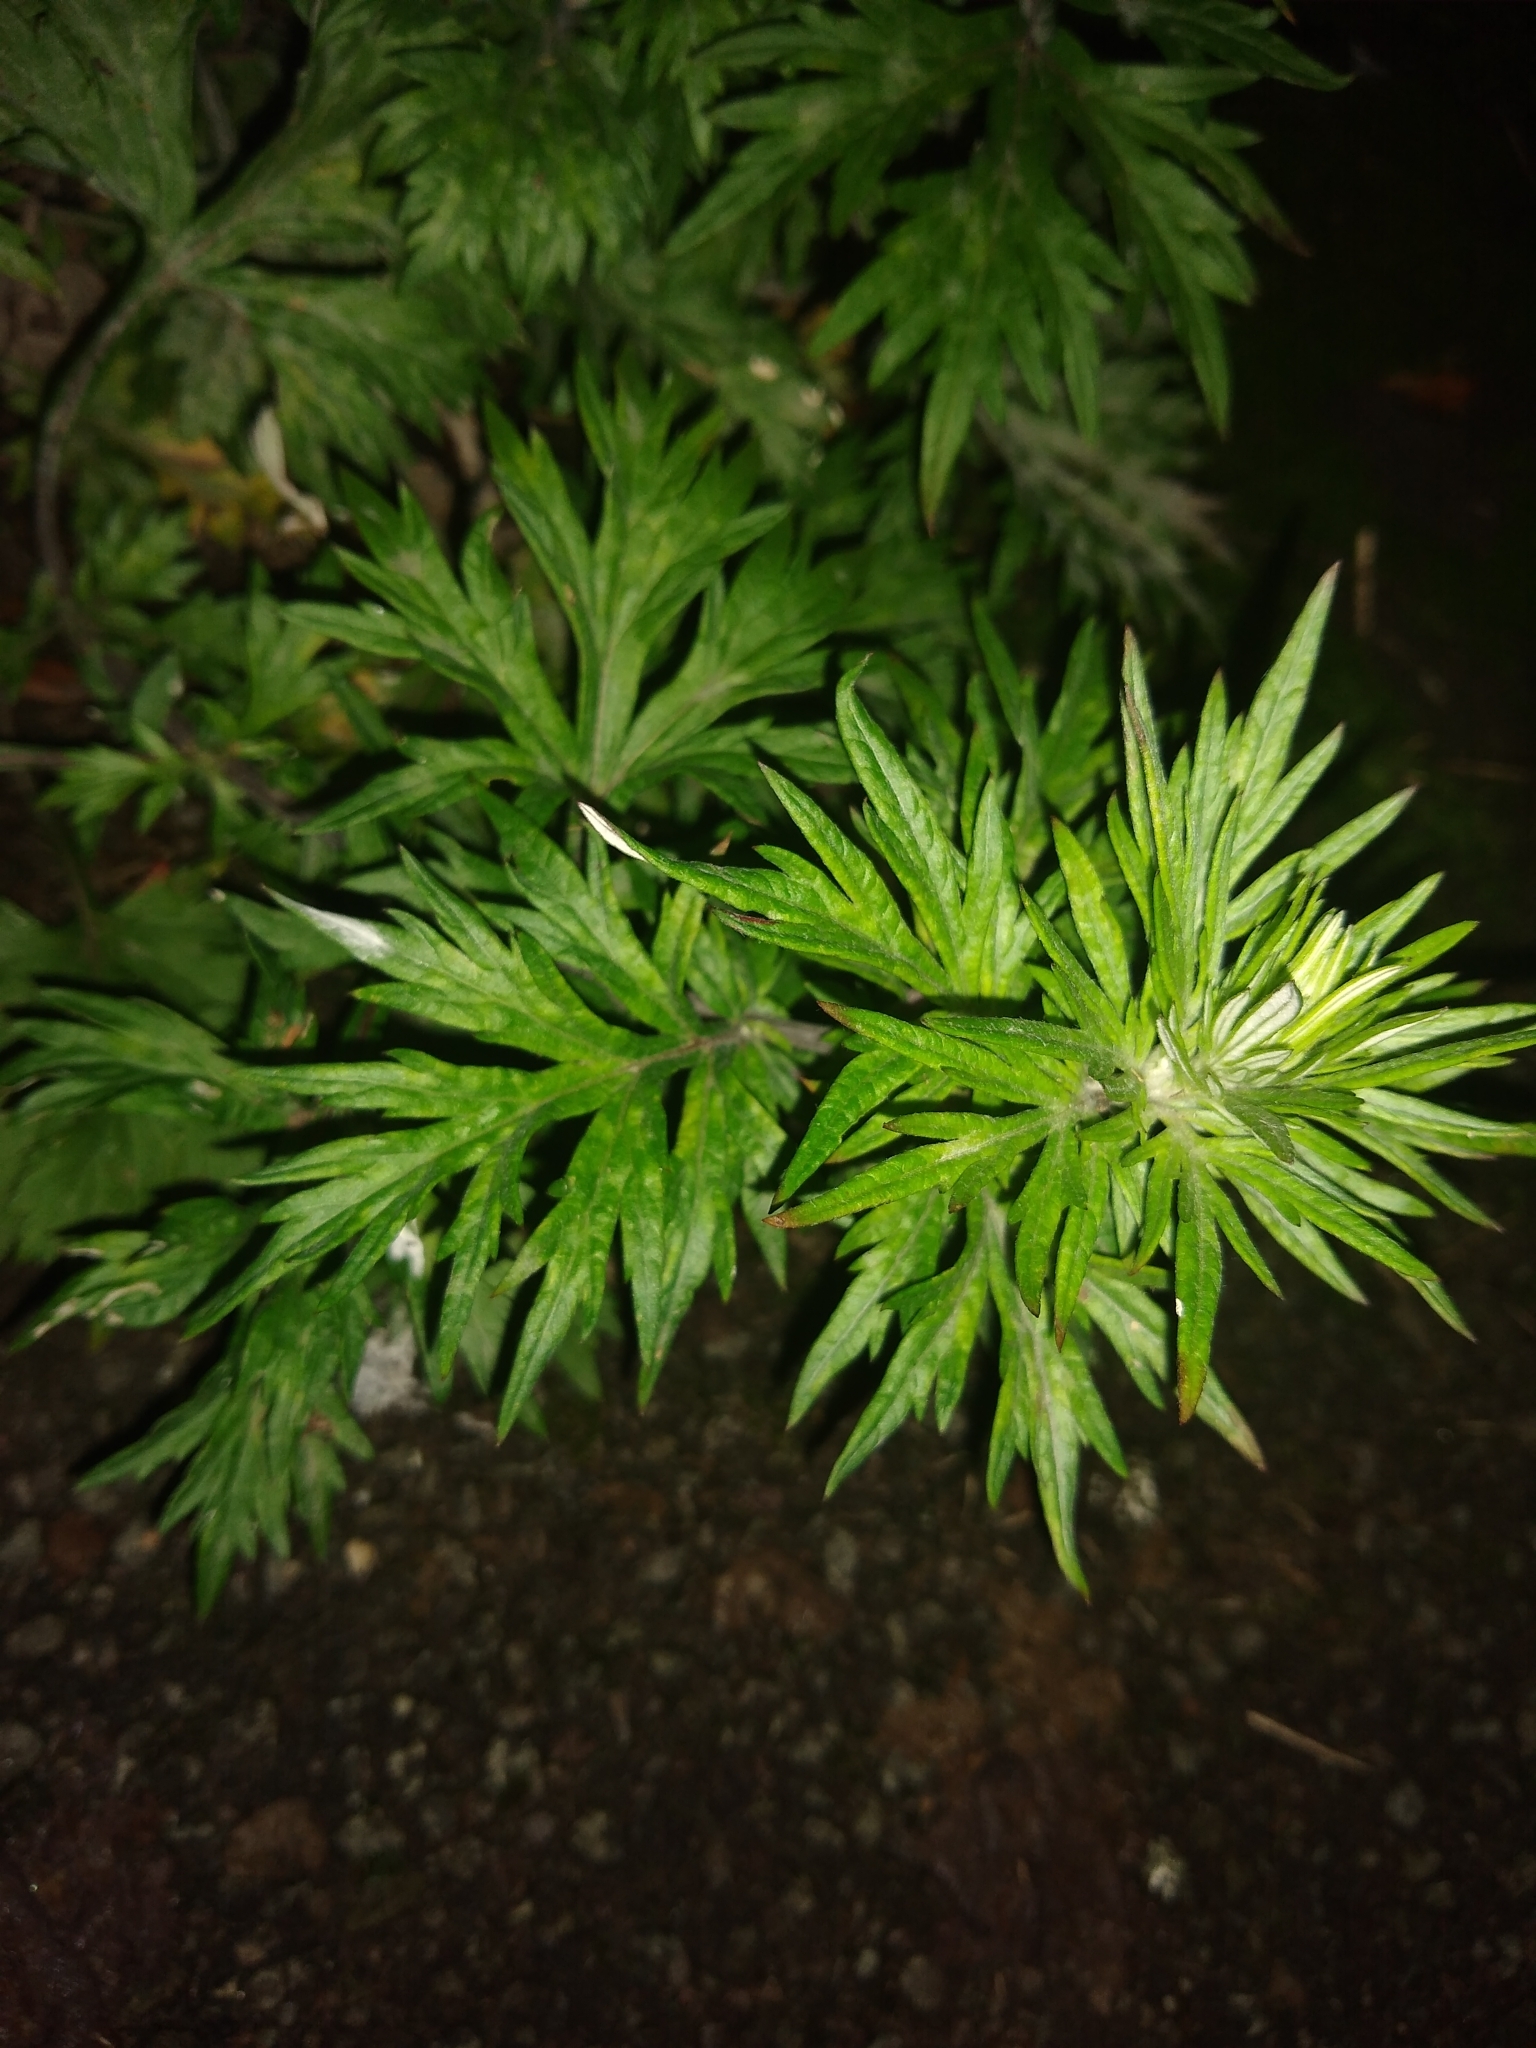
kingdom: Plantae
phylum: Tracheophyta
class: Magnoliopsida
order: Asterales
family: Asteraceae
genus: Artemisia
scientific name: Artemisia vulgaris
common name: Mugwort
